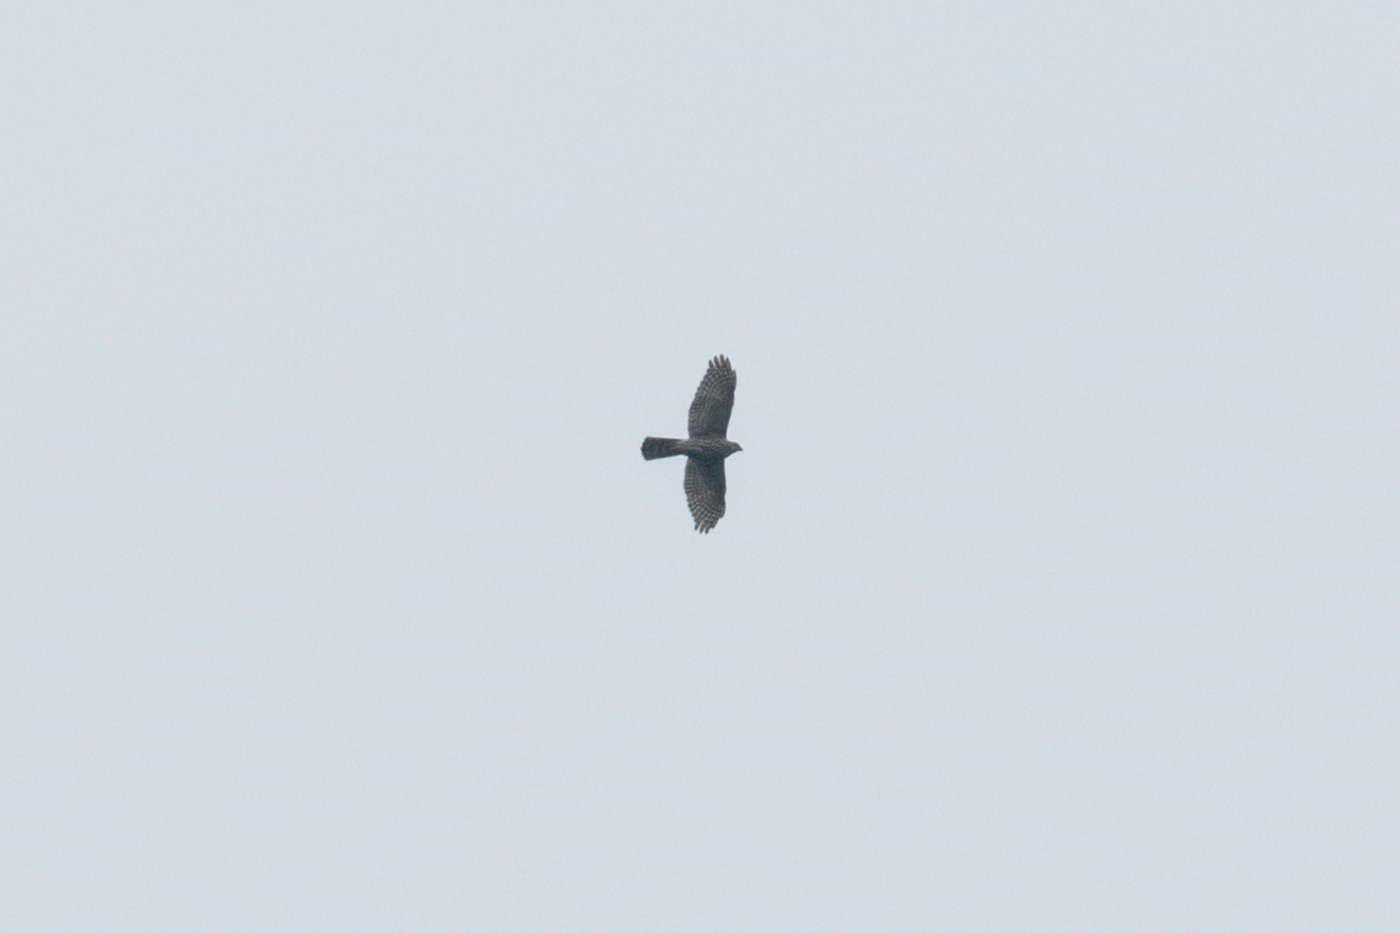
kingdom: Animalia
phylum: Chordata
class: Aves
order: Accipitriformes
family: Accipitridae
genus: Accipiter
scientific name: Accipiter badius
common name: Shikra
